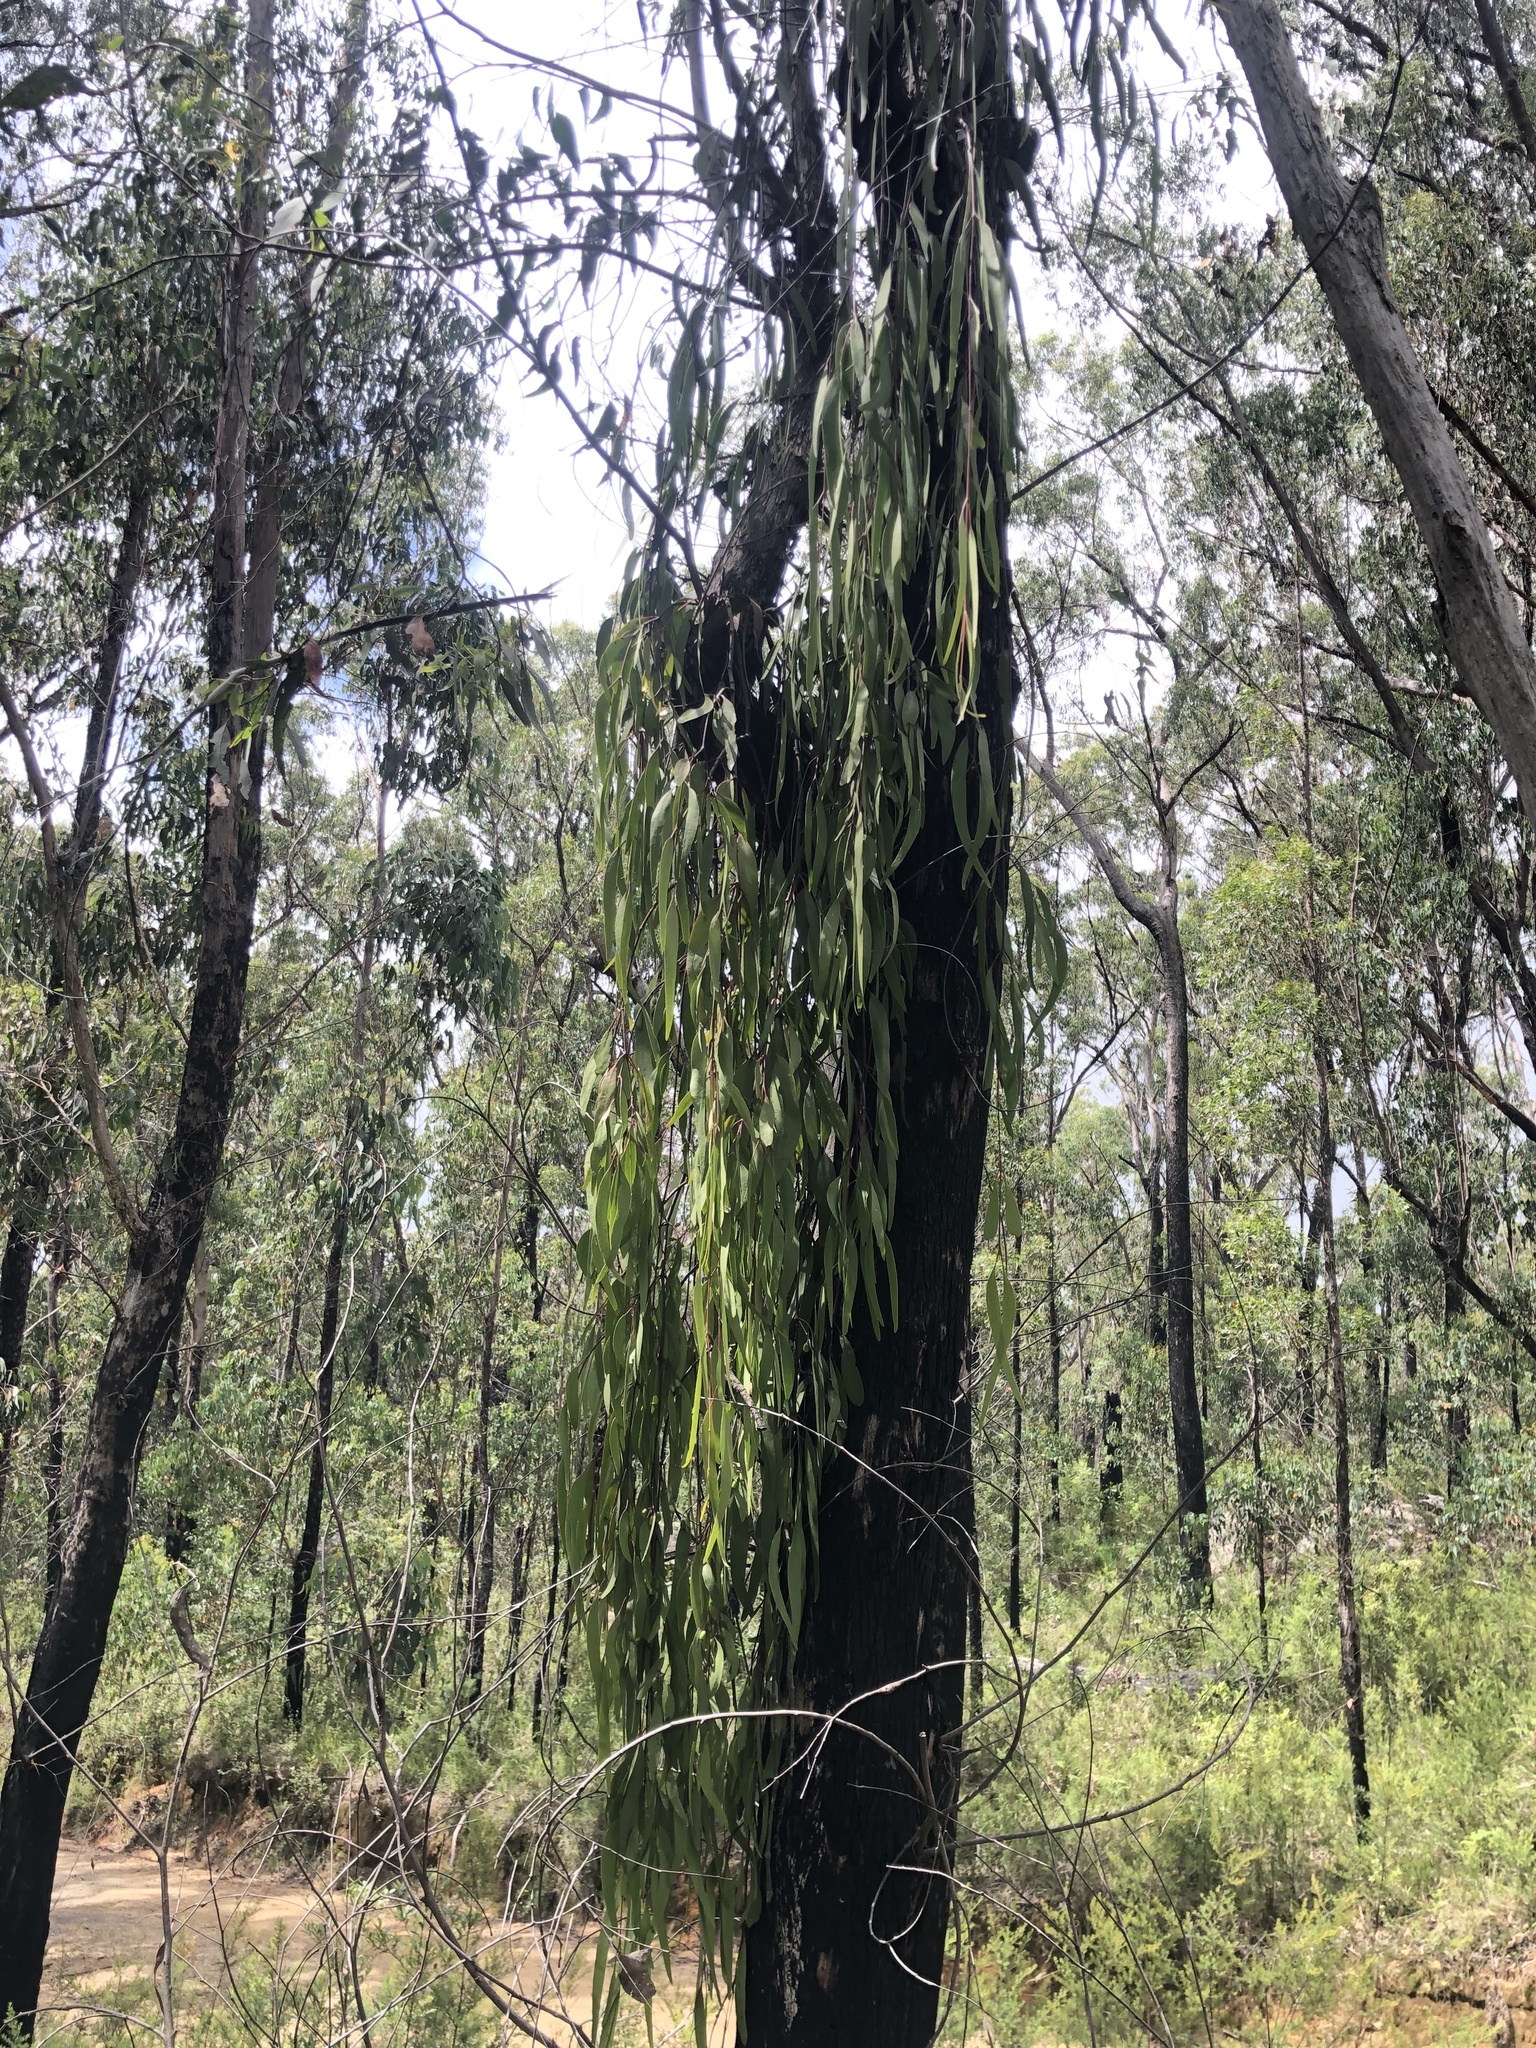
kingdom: Plantae
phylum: Tracheophyta
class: Magnoliopsida
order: Santalales
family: Loranthaceae
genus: Muellerina
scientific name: Muellerina eucalyptoides
